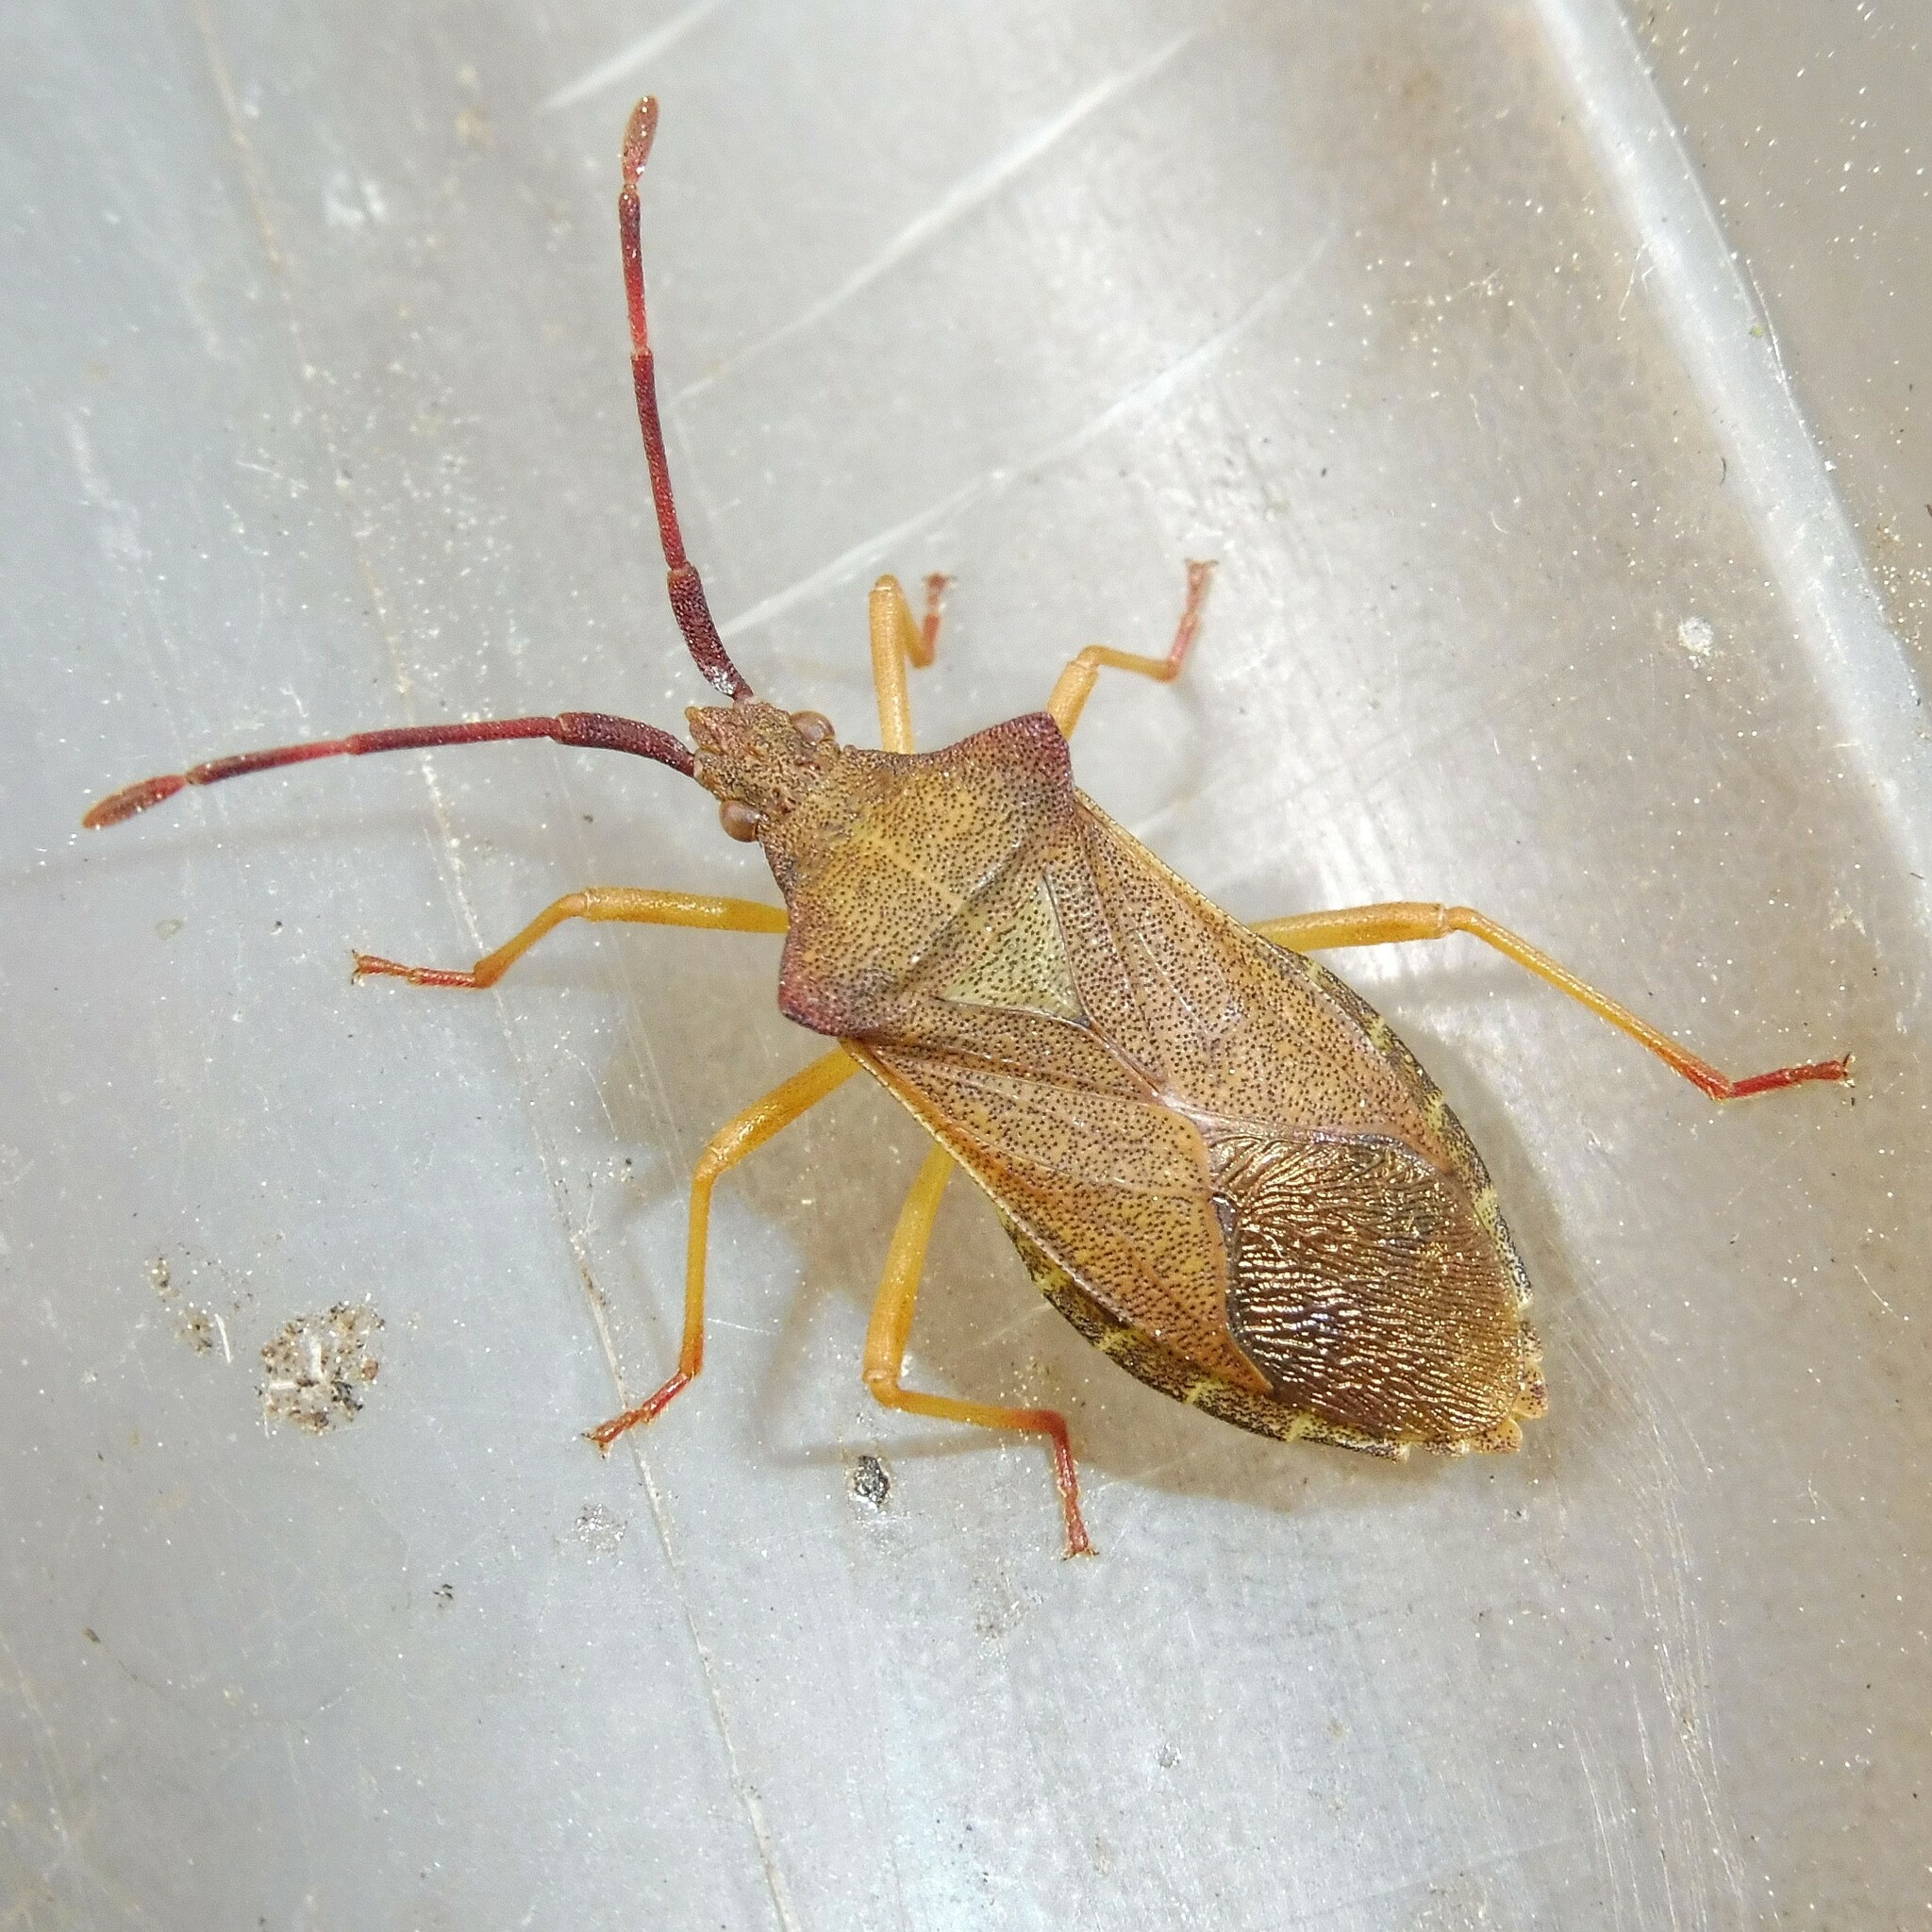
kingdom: Animalia
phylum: Arthropoda
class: Insecta
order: Hemiptera
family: Coreidae
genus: Gonocerus
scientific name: Gonocerus acuteangulatus
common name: Box bug
